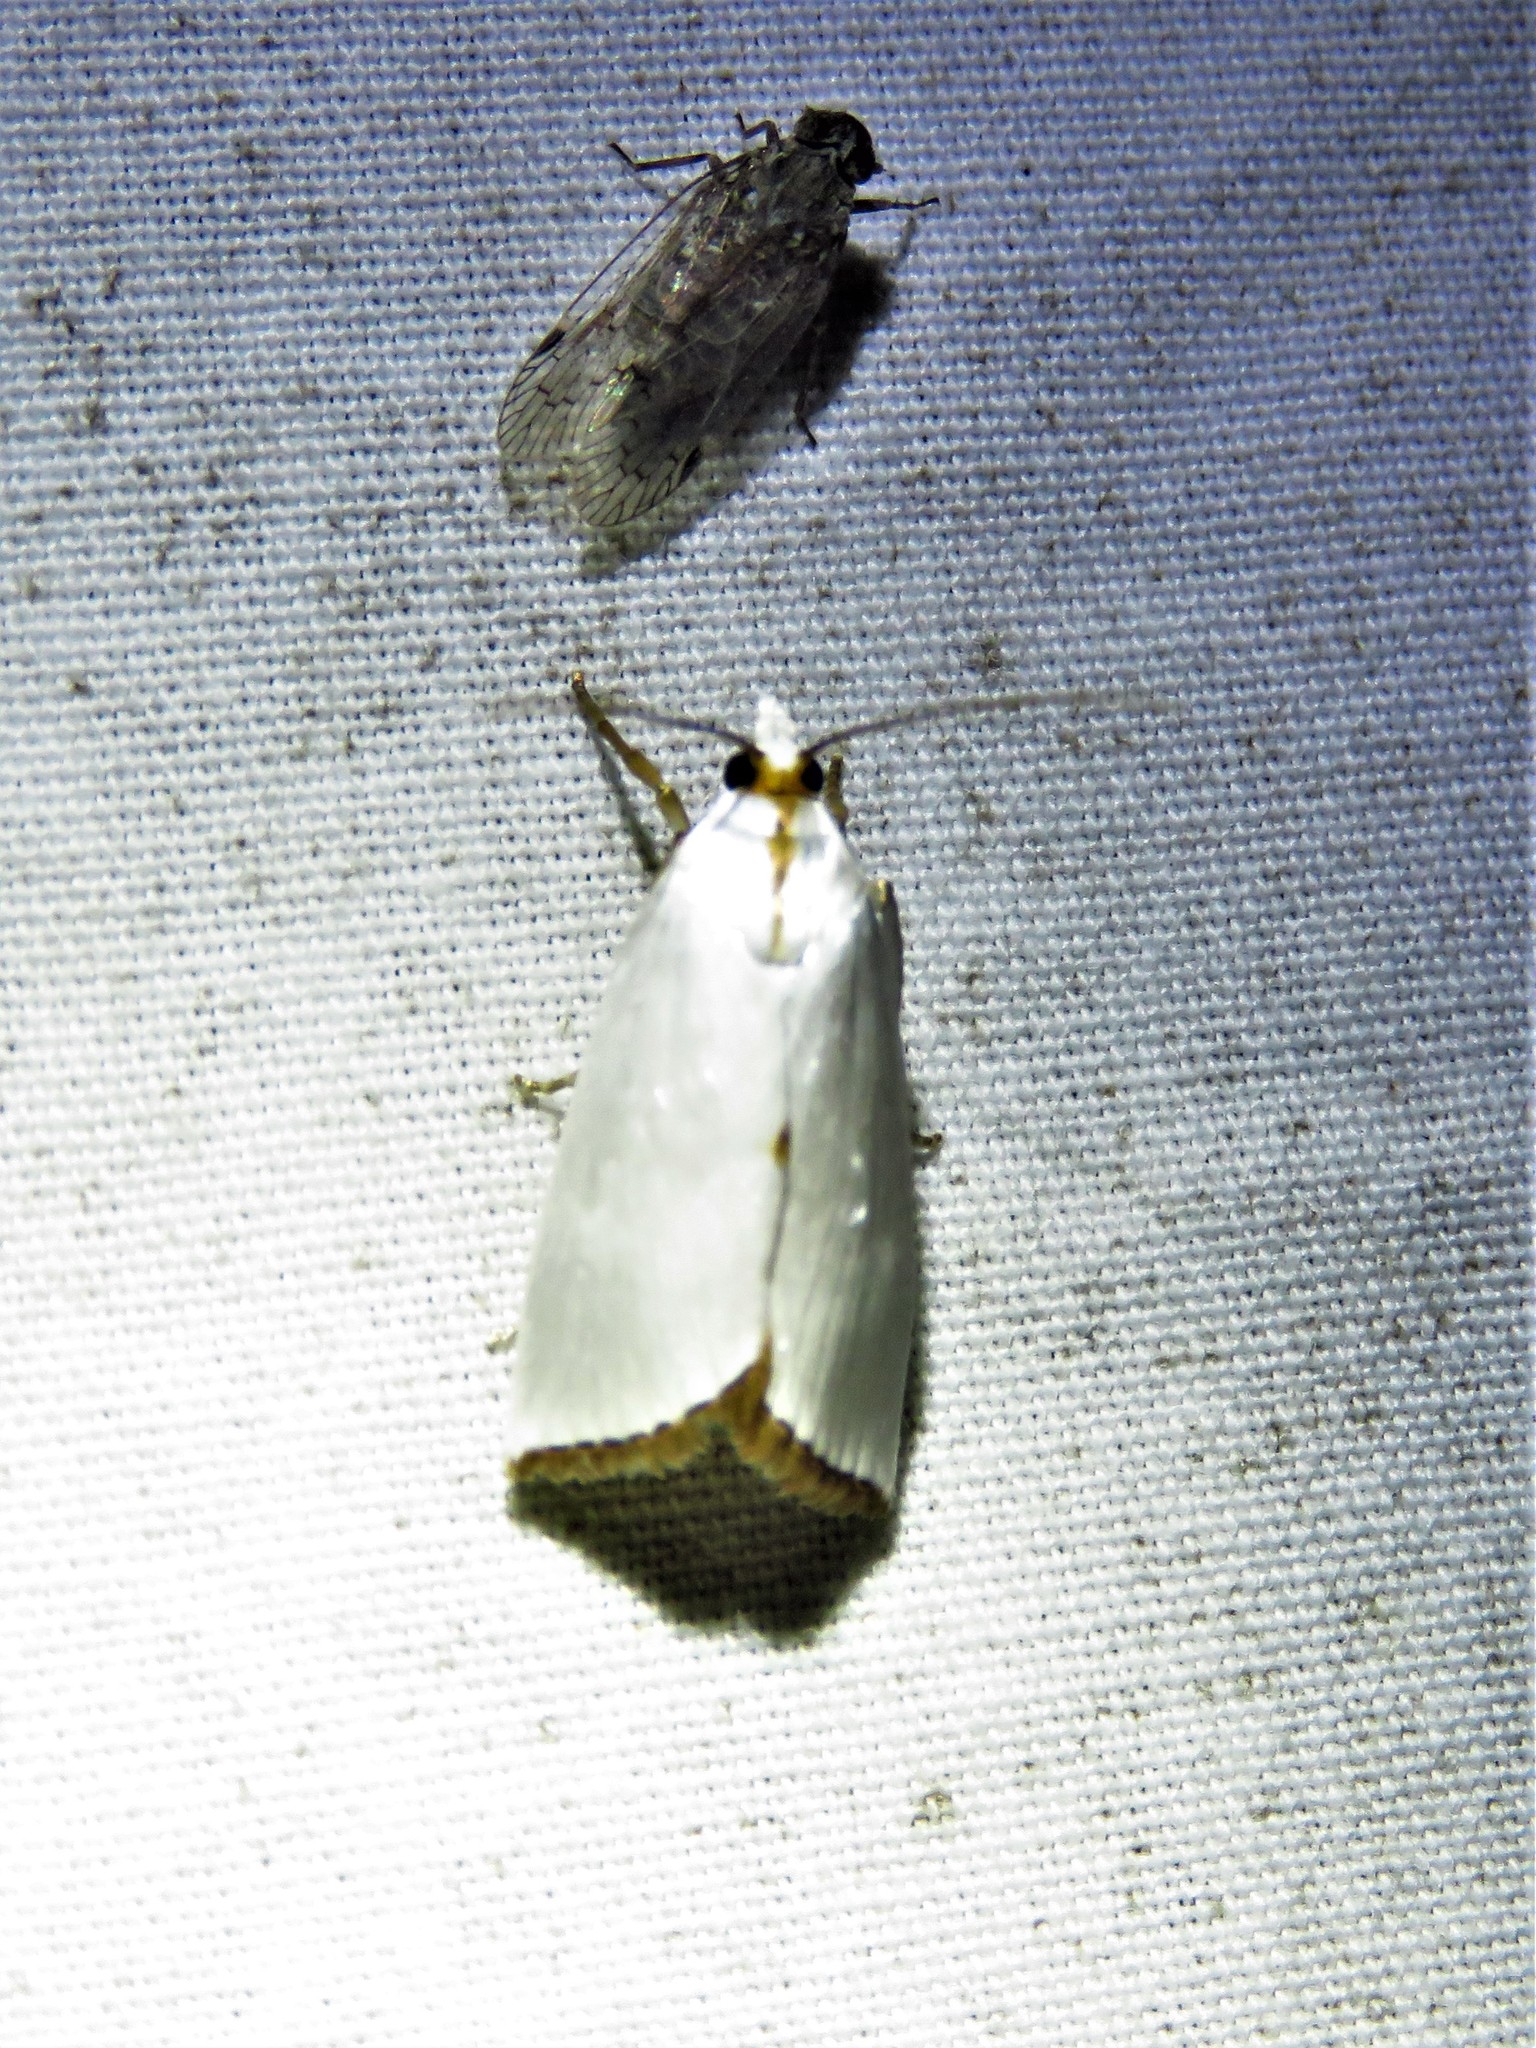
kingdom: Animalia
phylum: Arthropoda
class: Insecta
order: Lepidoptera
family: Crambidae
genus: Argyria
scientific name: Argyria nivalis
